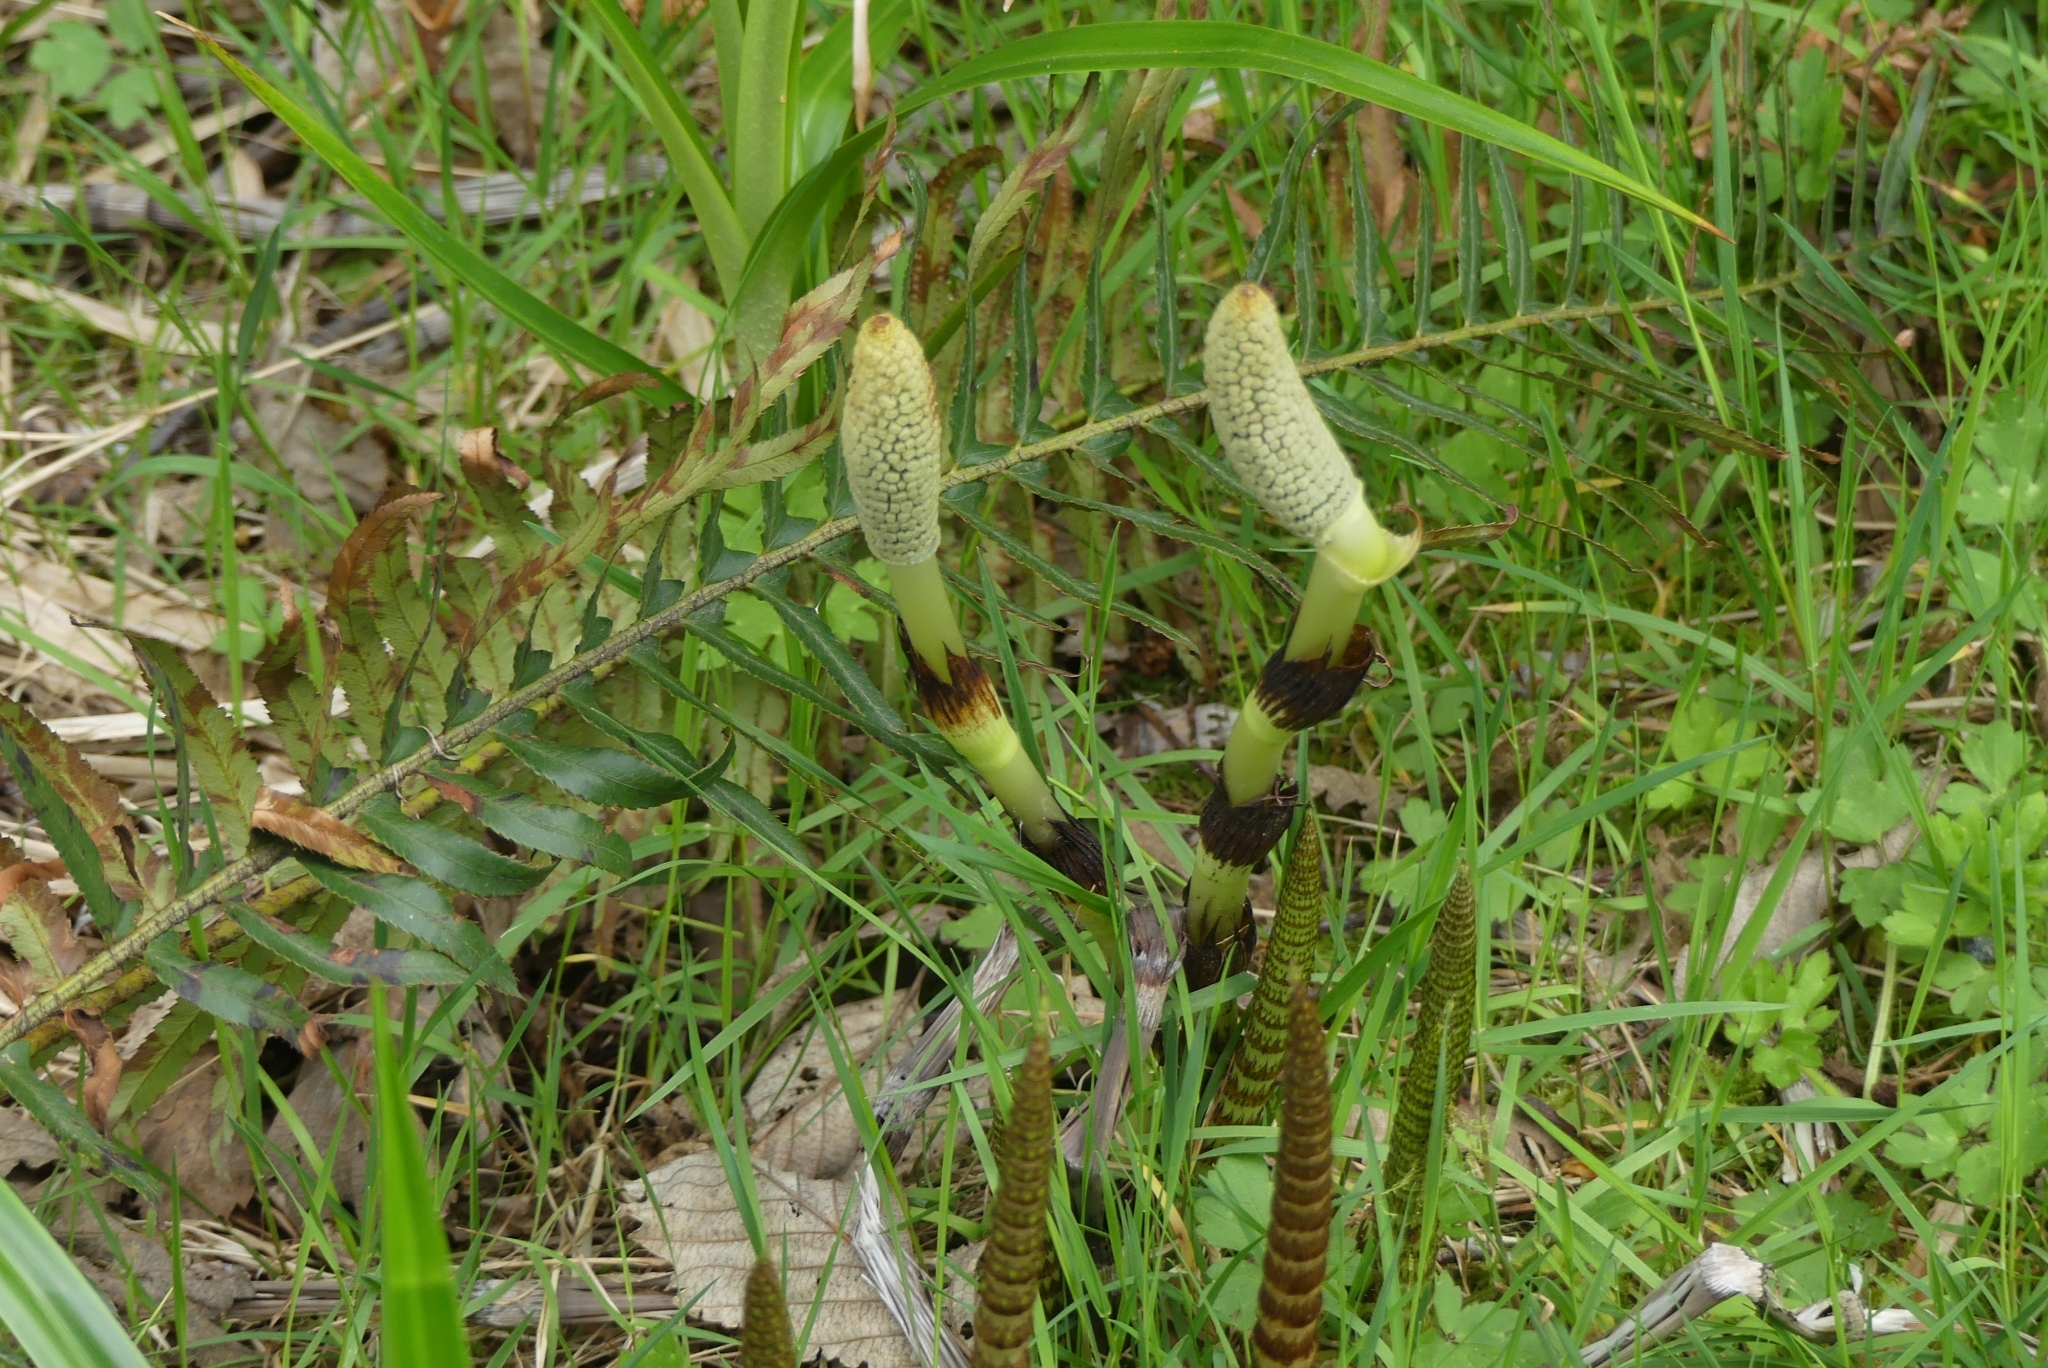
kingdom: Plantae
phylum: Tracheophyta
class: Polypodiopsida
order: Equisetales
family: Equisetaceae
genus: Equisetum
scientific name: Equisetum telmateia
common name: Great horsetail
